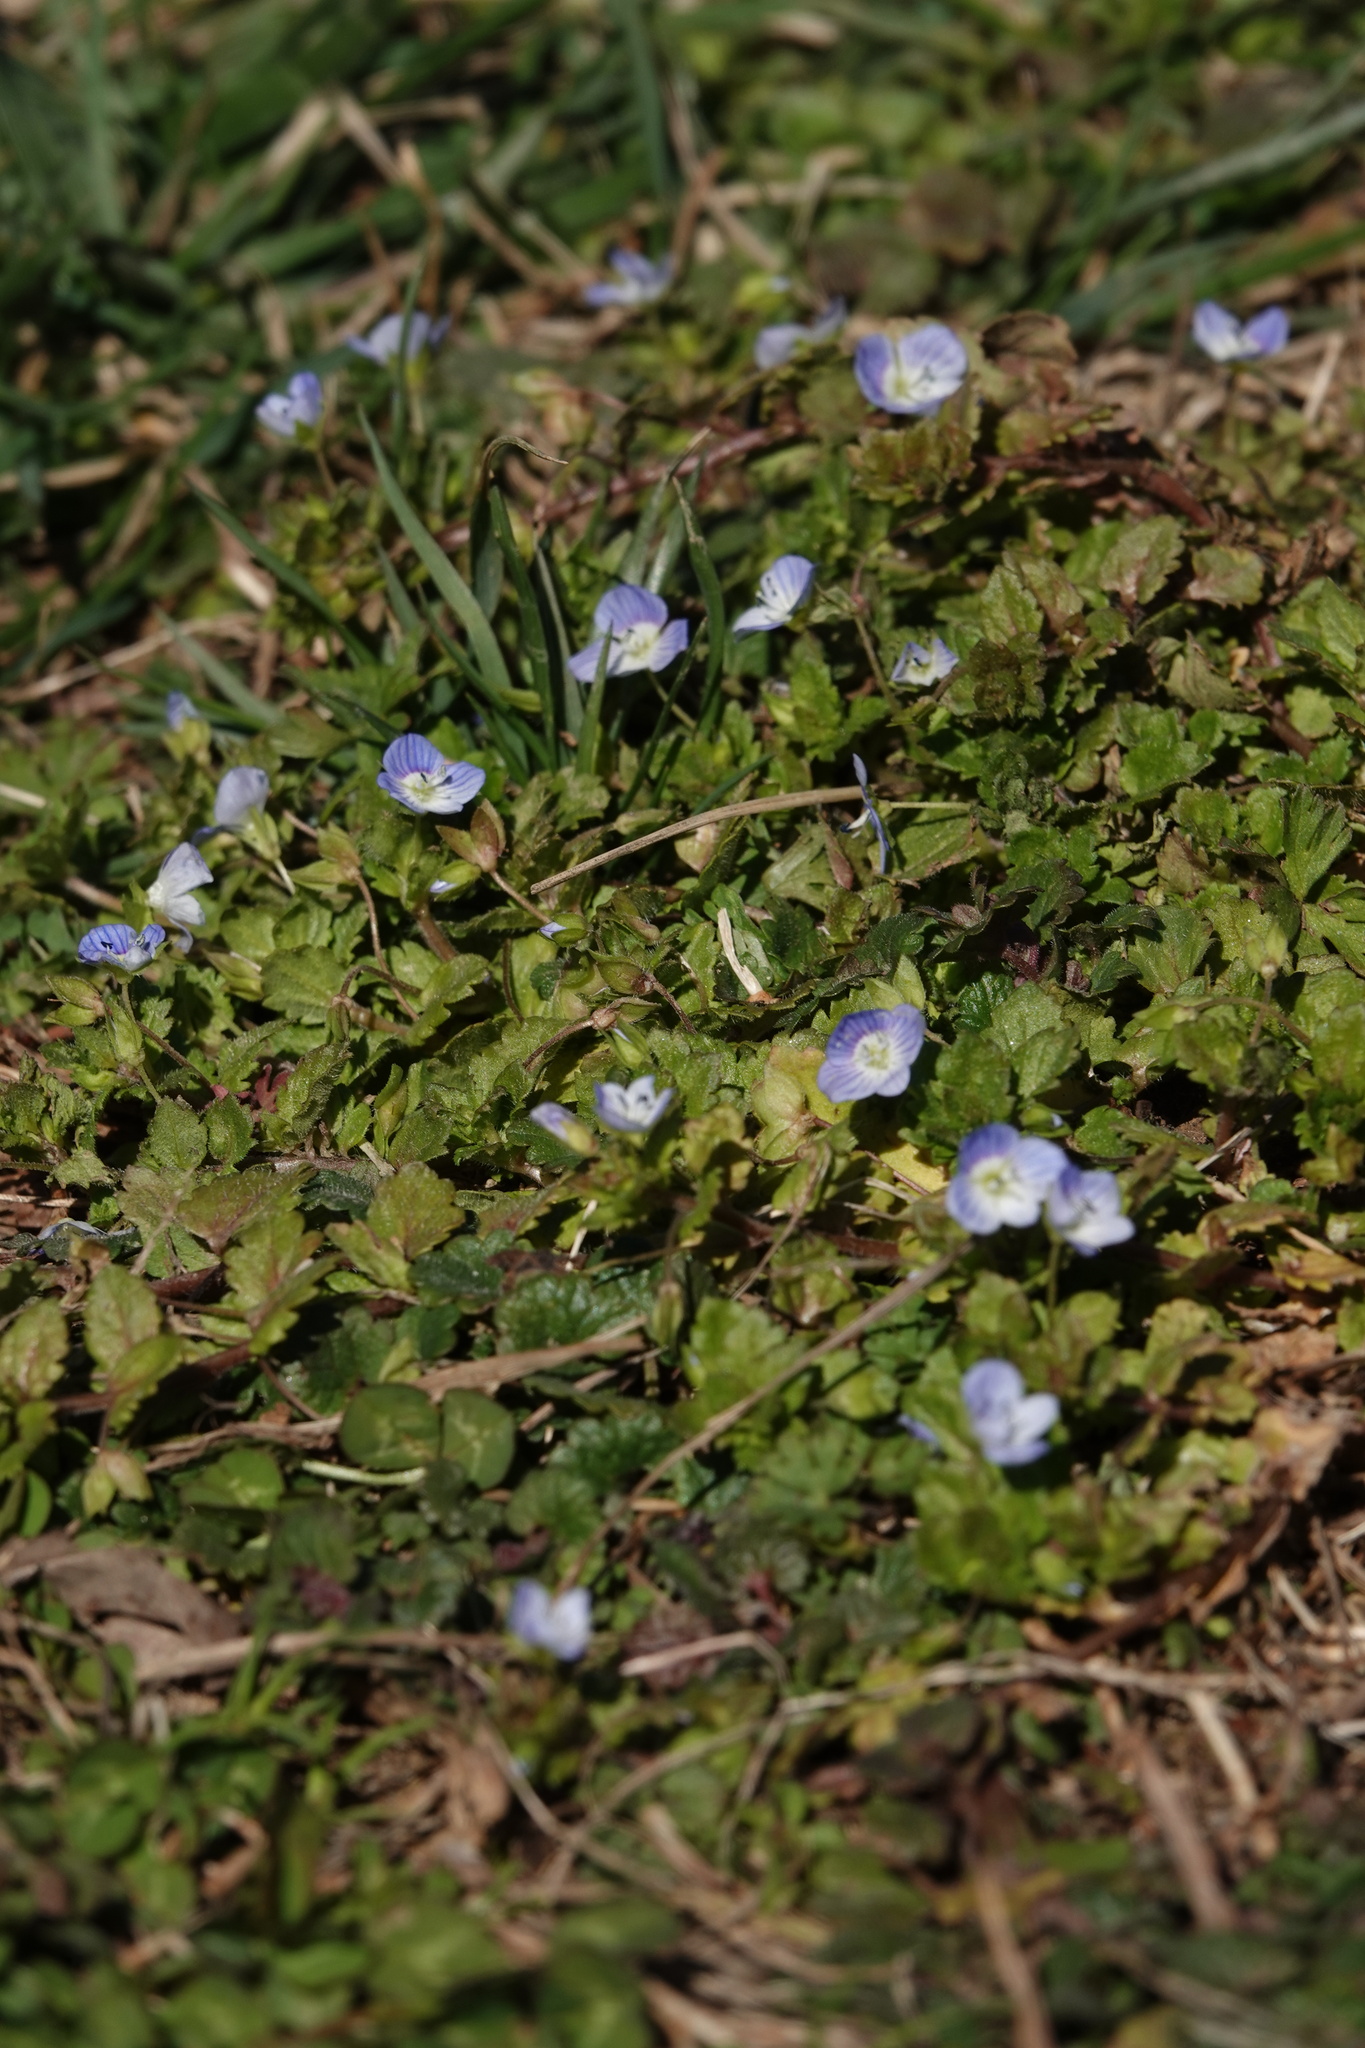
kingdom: Plantae
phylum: Tracheophyta
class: Magnoliopsida
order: Lamiales
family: Plantaginaceae
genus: Veronica
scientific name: Veronica persica
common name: Common field-speedwell
